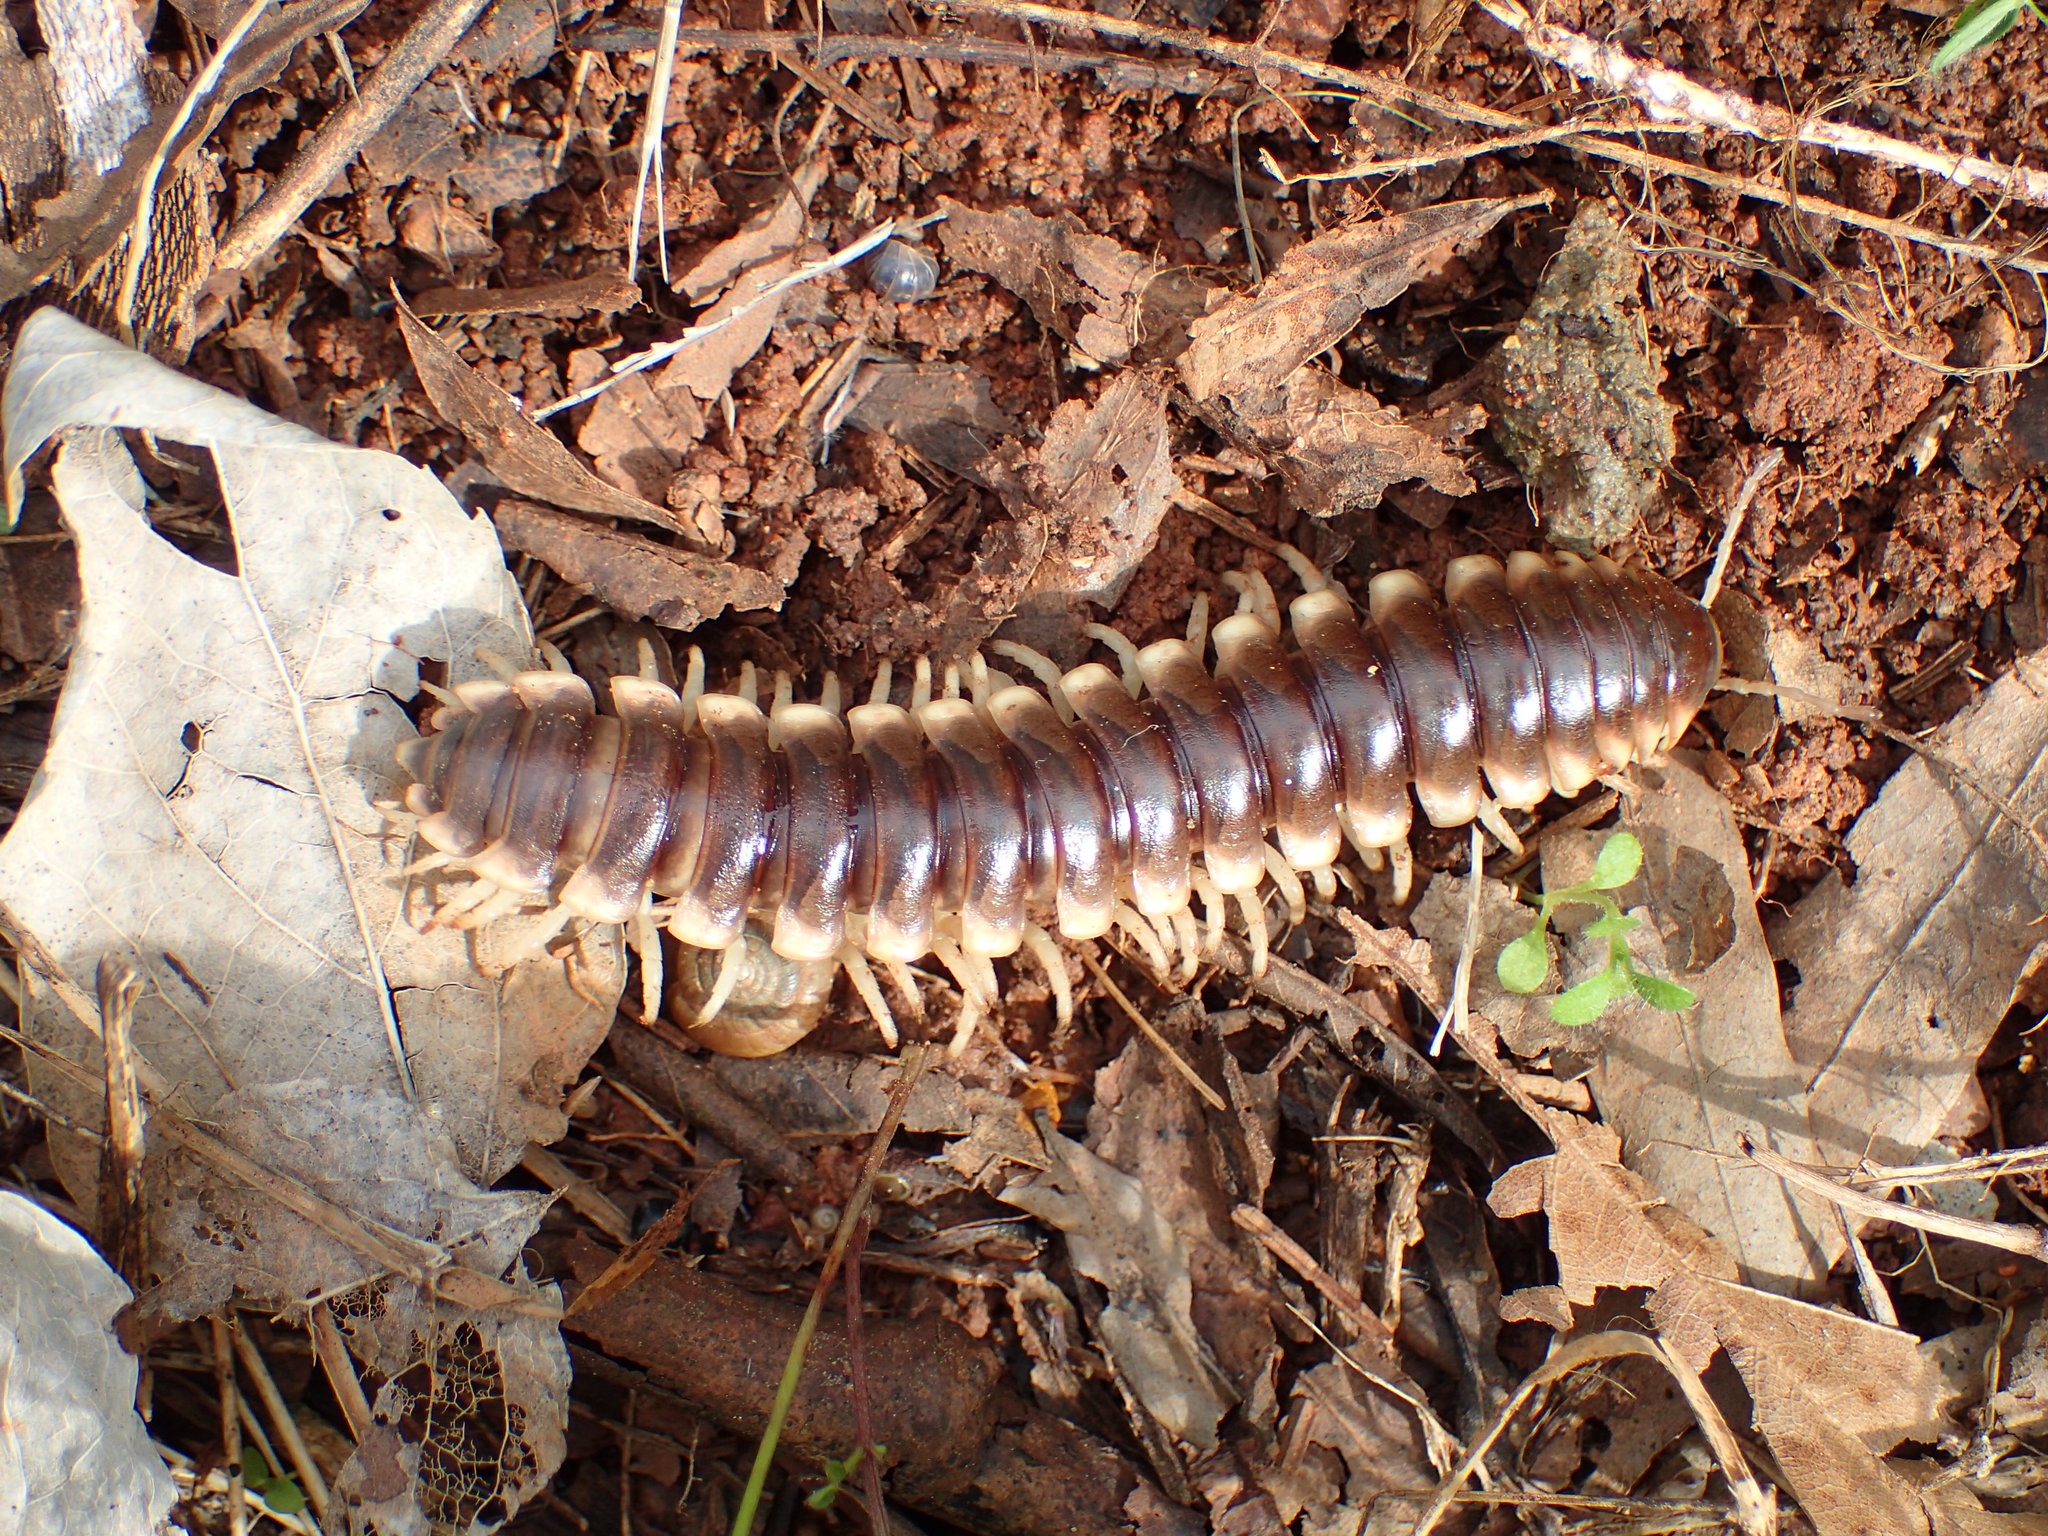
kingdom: Animalia
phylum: Arthropoda
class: Diplopoda
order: Polydesmida
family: Xystodesmidae
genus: Pachydesmus
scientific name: Pachydesmus hubrichti
